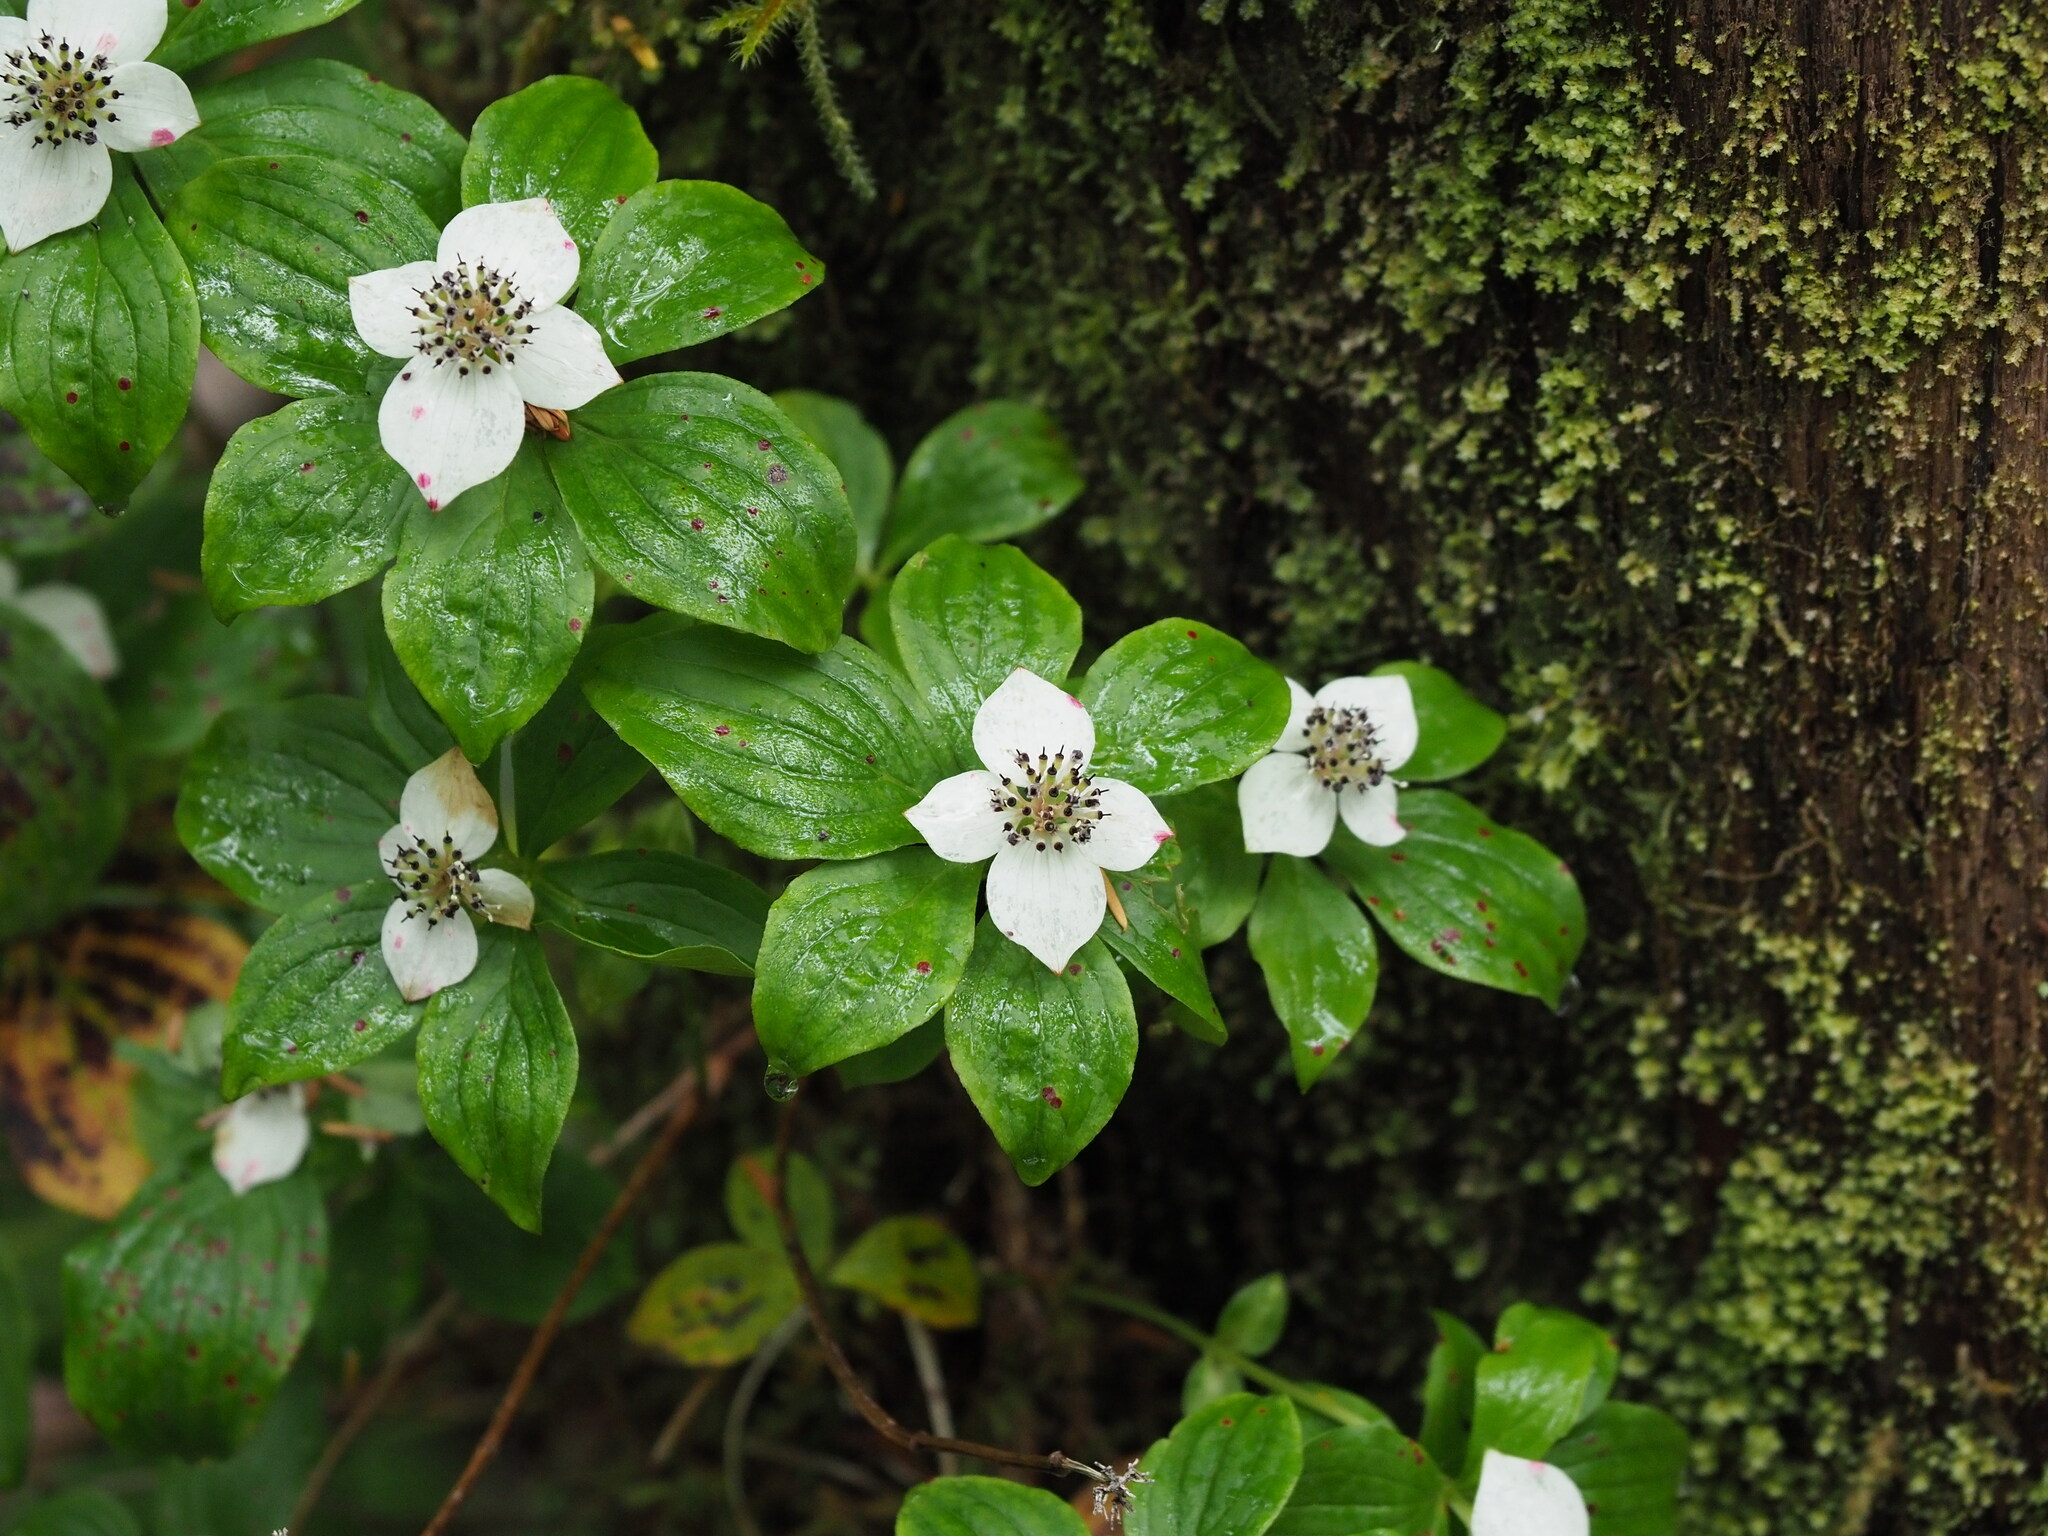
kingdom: Plantae
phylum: Tracheophyta
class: Magnoliopsida
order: Cornales
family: Cornaceae
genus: Cornus
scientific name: Cornus unalaschkensis
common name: Alaska bunchberry
